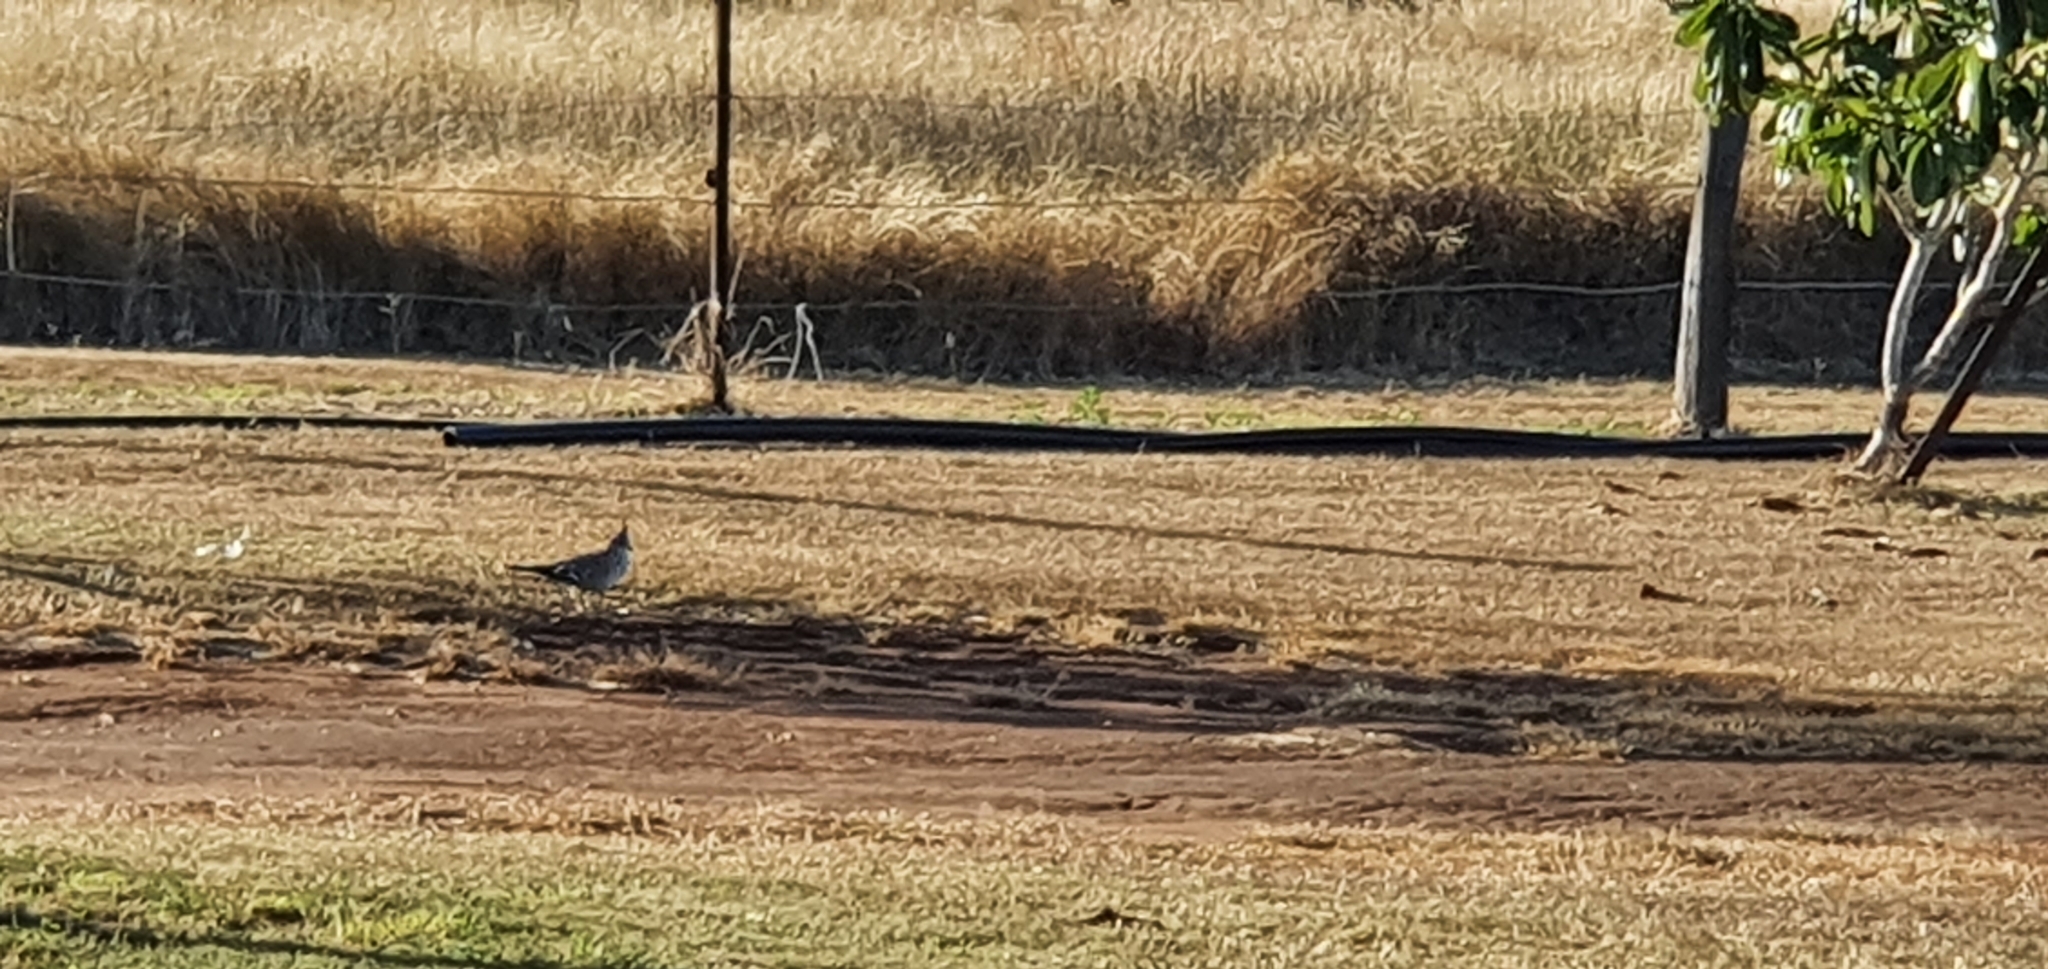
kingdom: Animalia
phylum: Chordata
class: Aves
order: Columbiformes
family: Columbidae
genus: Ocyphaps
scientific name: Ocyphaps lophotes
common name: Crested pigeon
